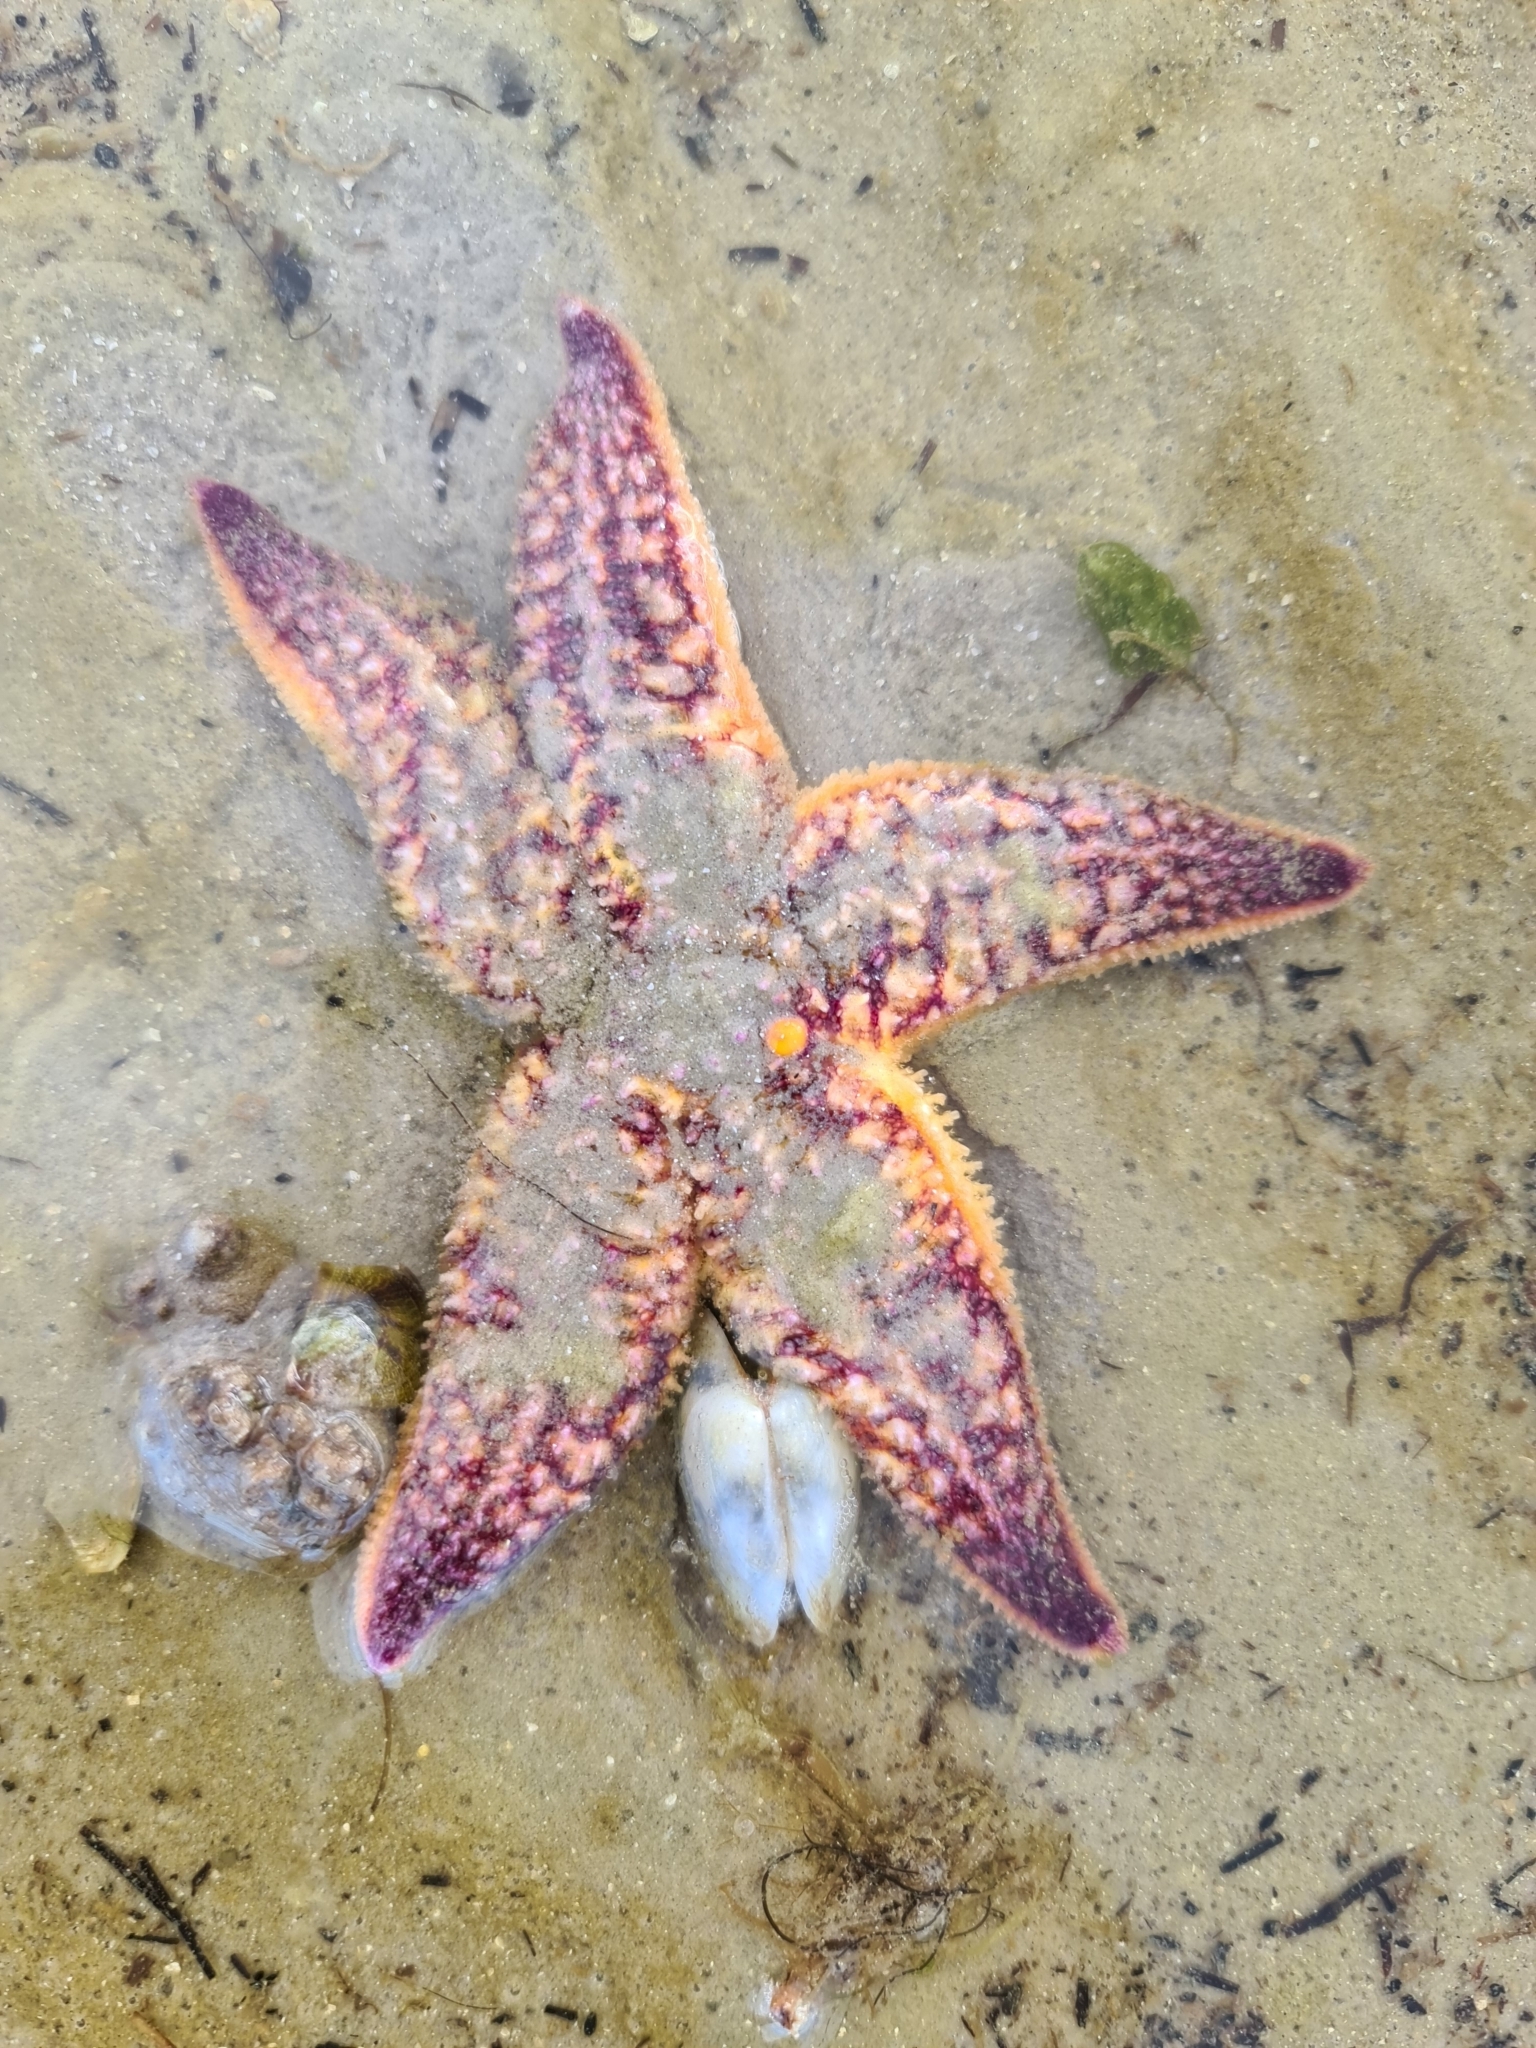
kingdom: Animalia
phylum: Echinodermata
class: Asteroidea
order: Forcipulatida
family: Asteriidae
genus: Asterias
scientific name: Asterias amurensis
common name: Flat-bottomed star
